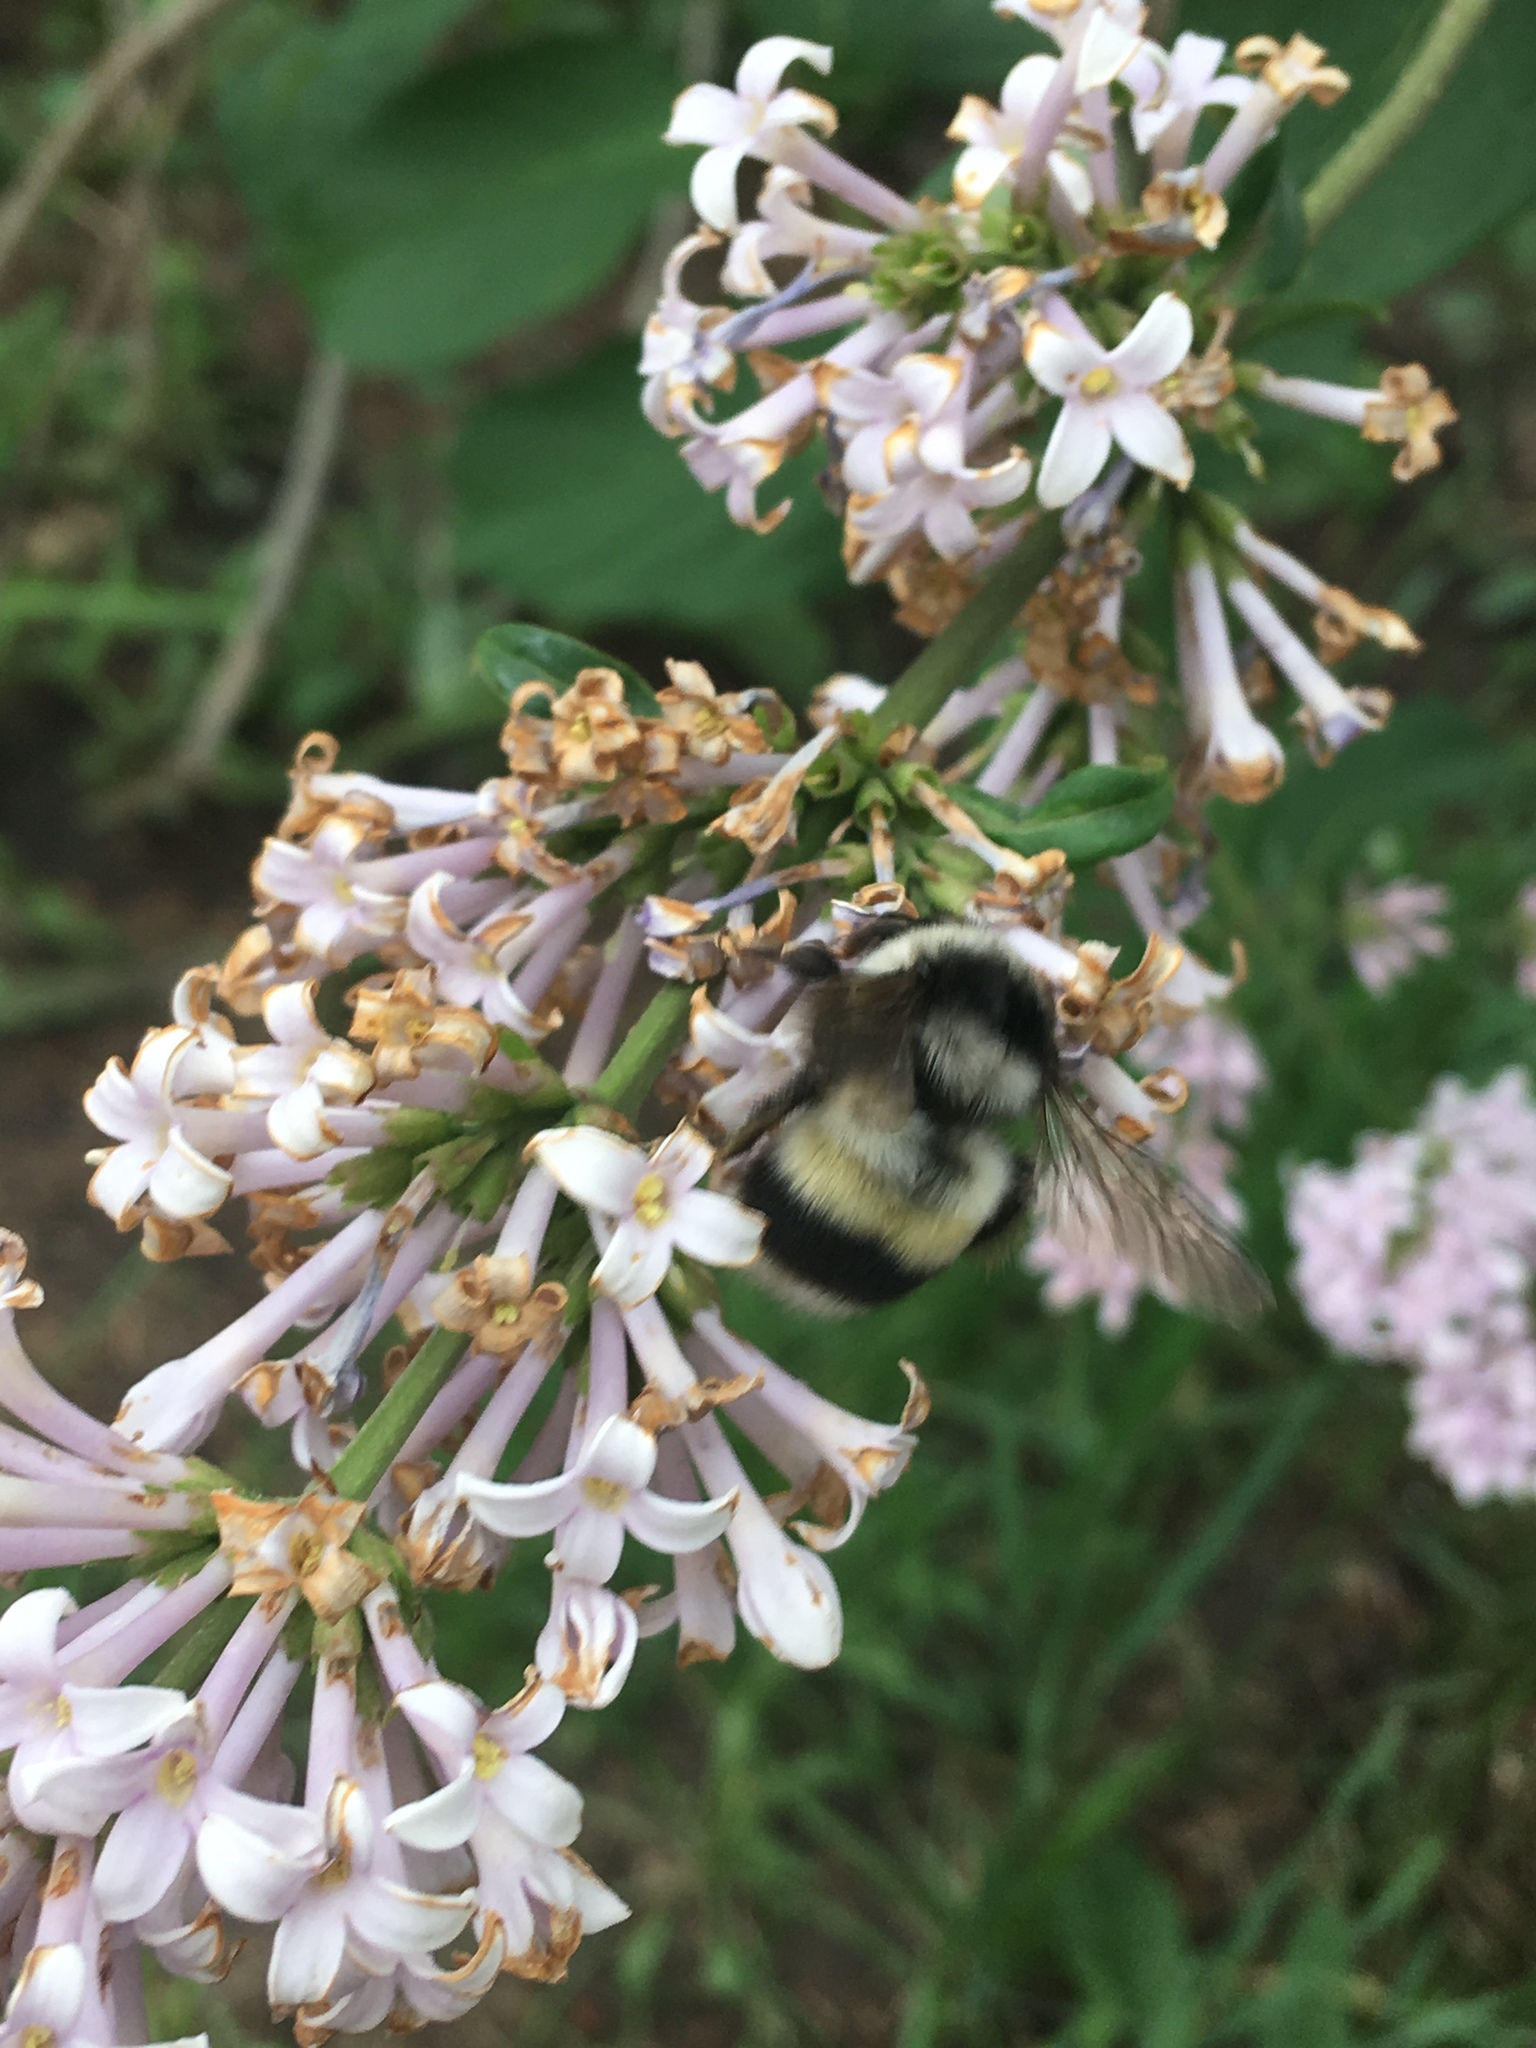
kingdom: Animalia
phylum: Arthropoda
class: Insecta
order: Hymenoptera
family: Apidae
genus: Bombus
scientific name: Bombus patagiatus
